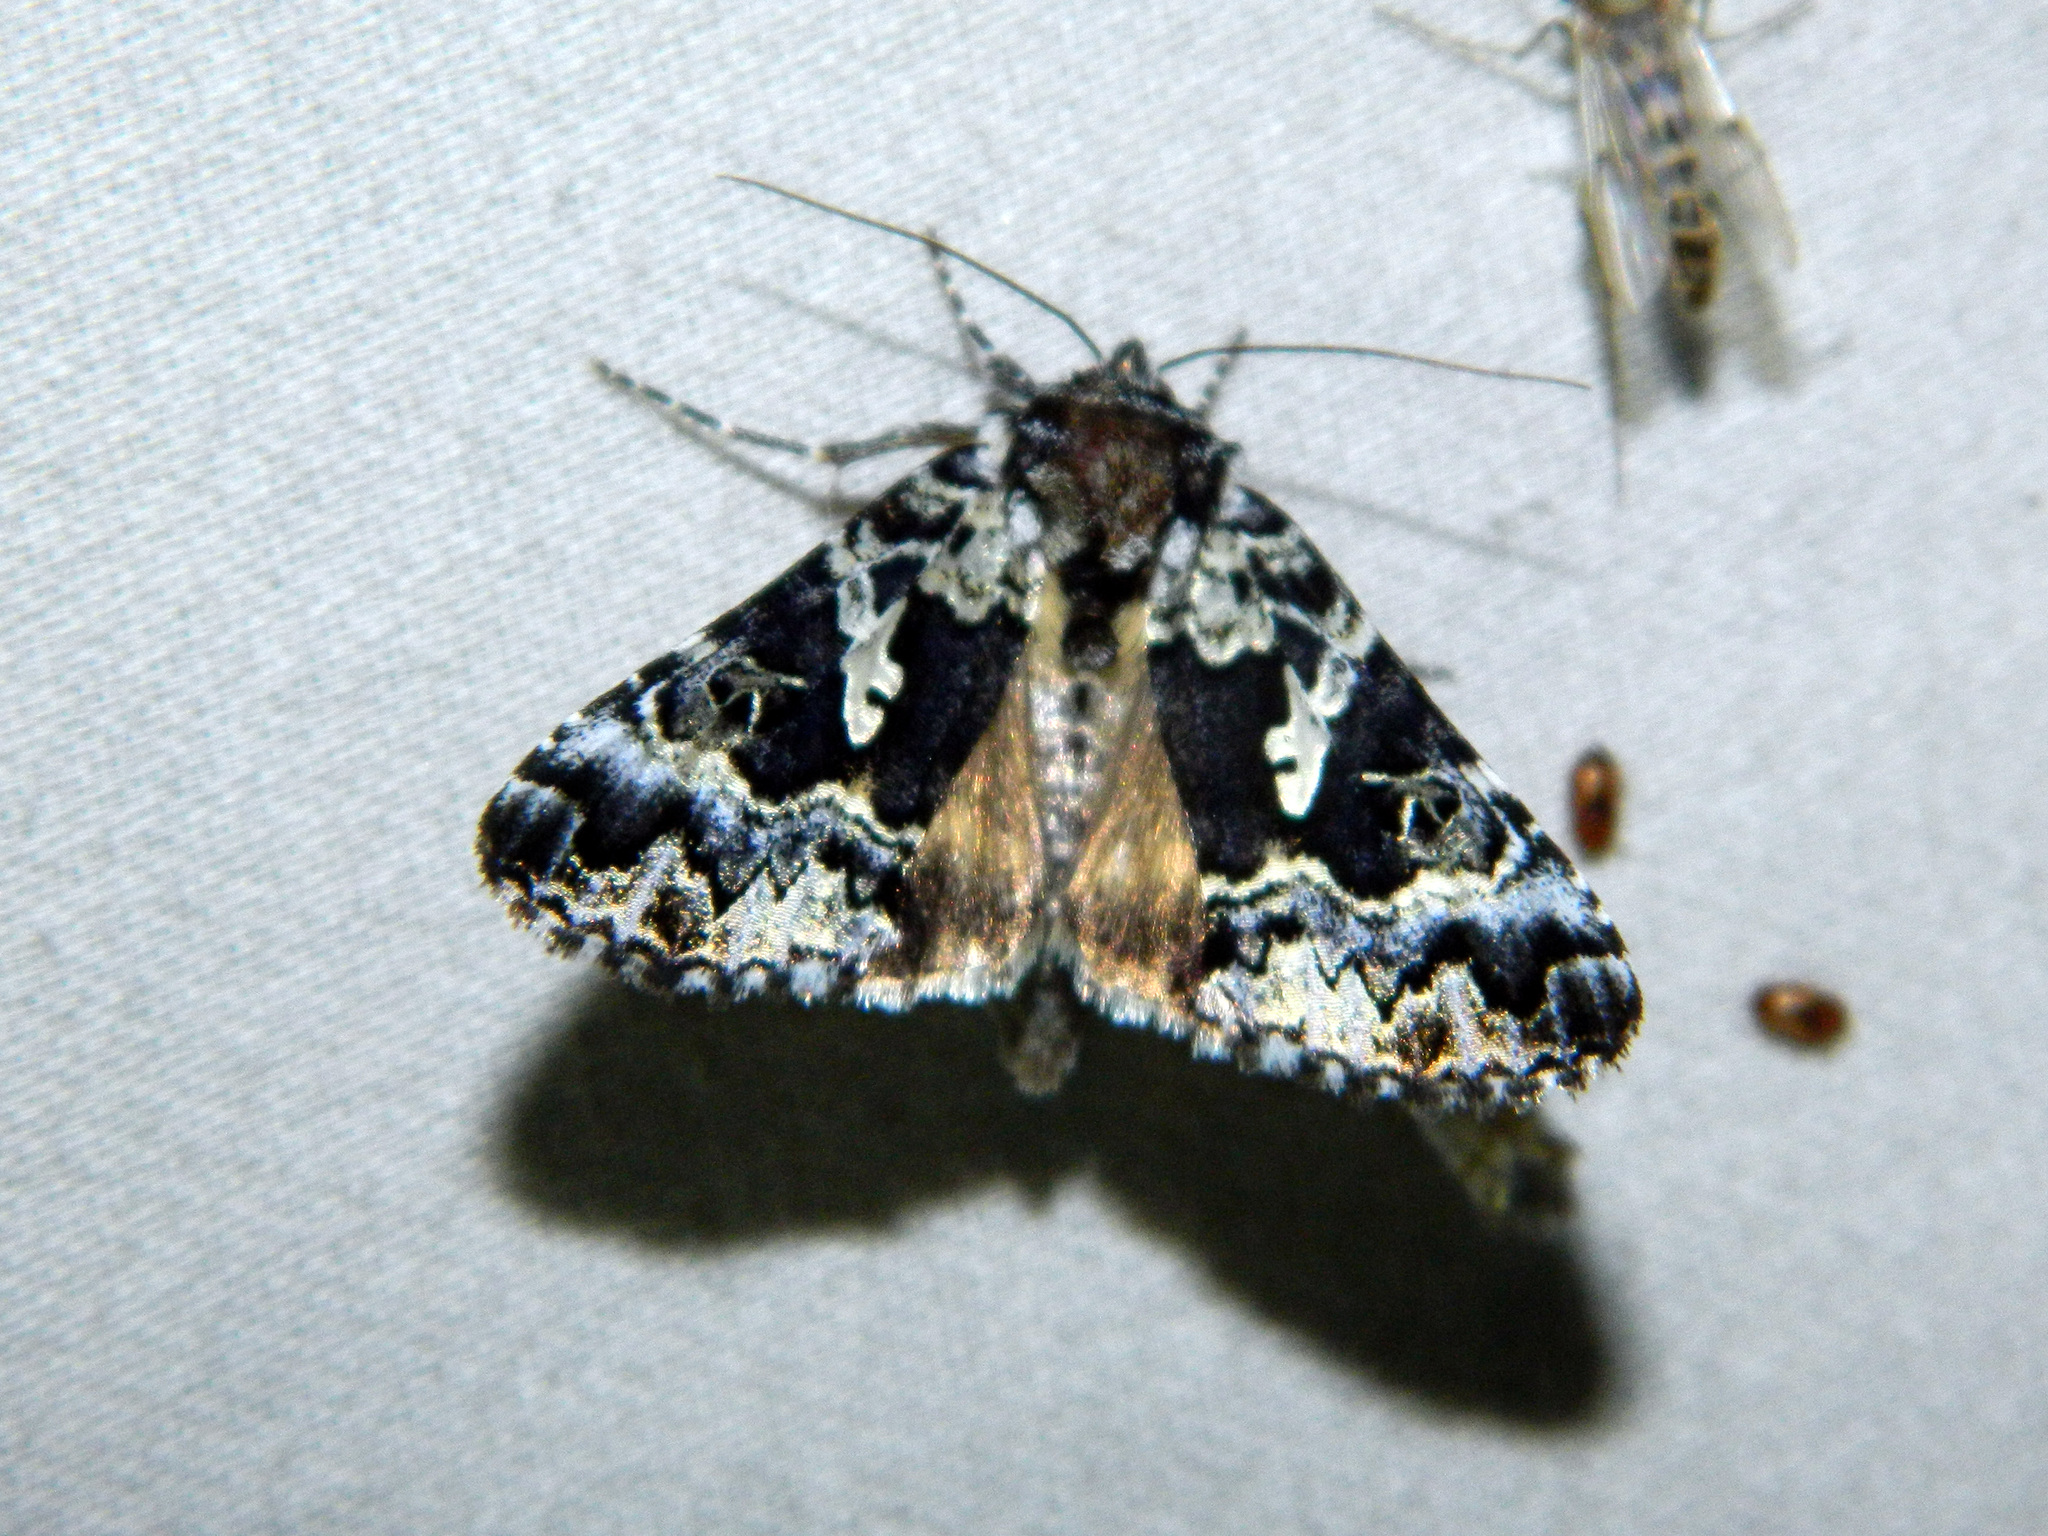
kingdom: Animalia
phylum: Arthropoda
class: Insecta
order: Lepidoptera
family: Noctuidae
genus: Syngrapha
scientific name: Syngrapha rectangula
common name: Angulated cutworm
